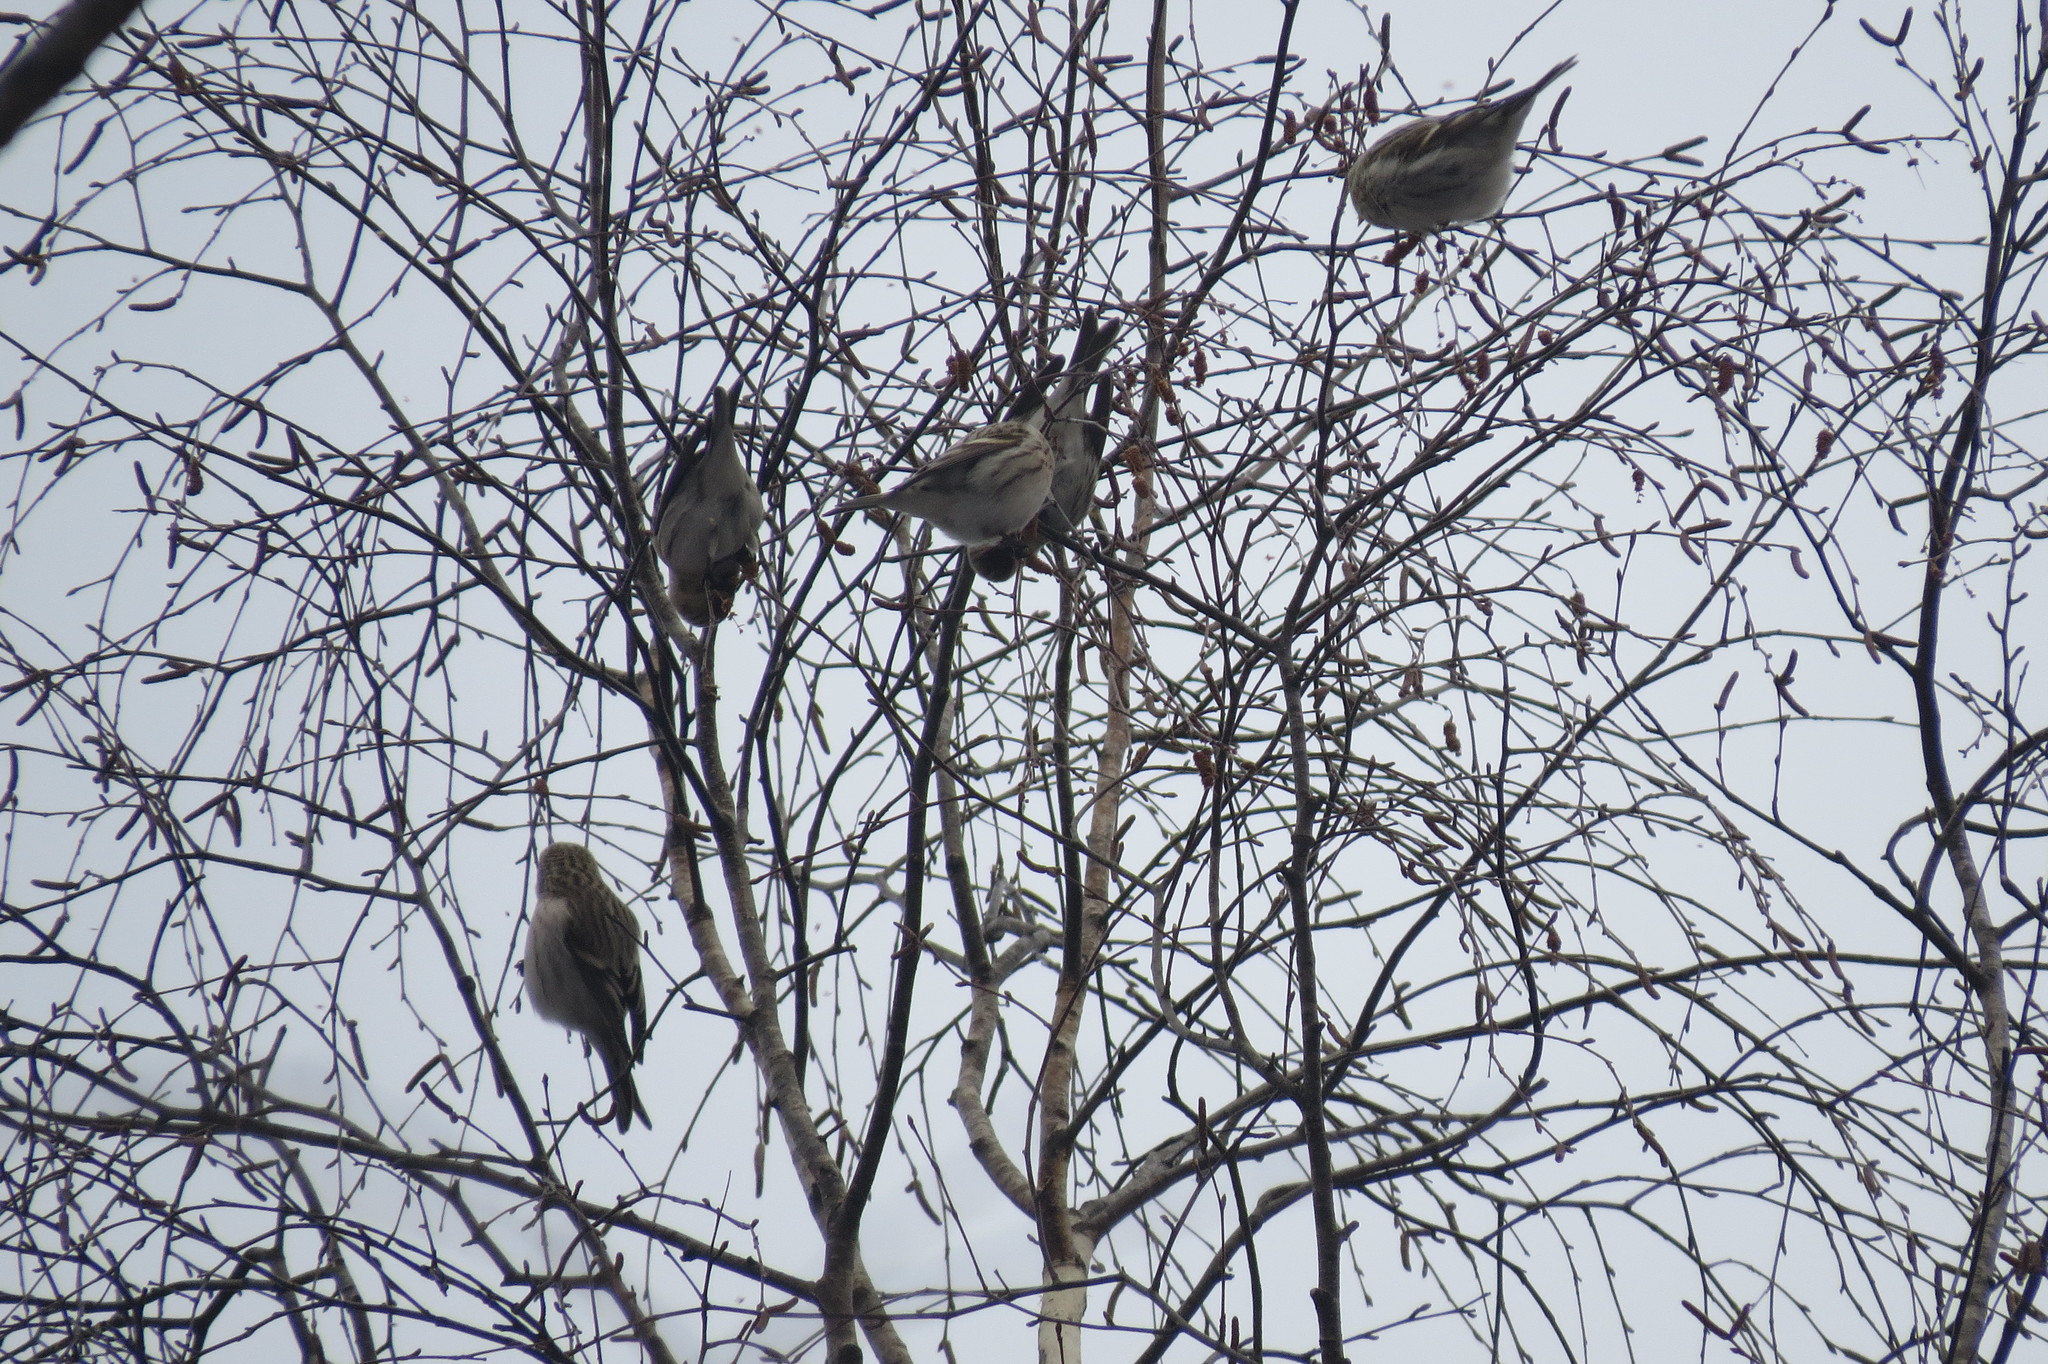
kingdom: Animalia
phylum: Chordata
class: Aves
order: Passeriformes
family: Fringillidae
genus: Acanthis
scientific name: Acanthis flammea
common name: Common redpoll
